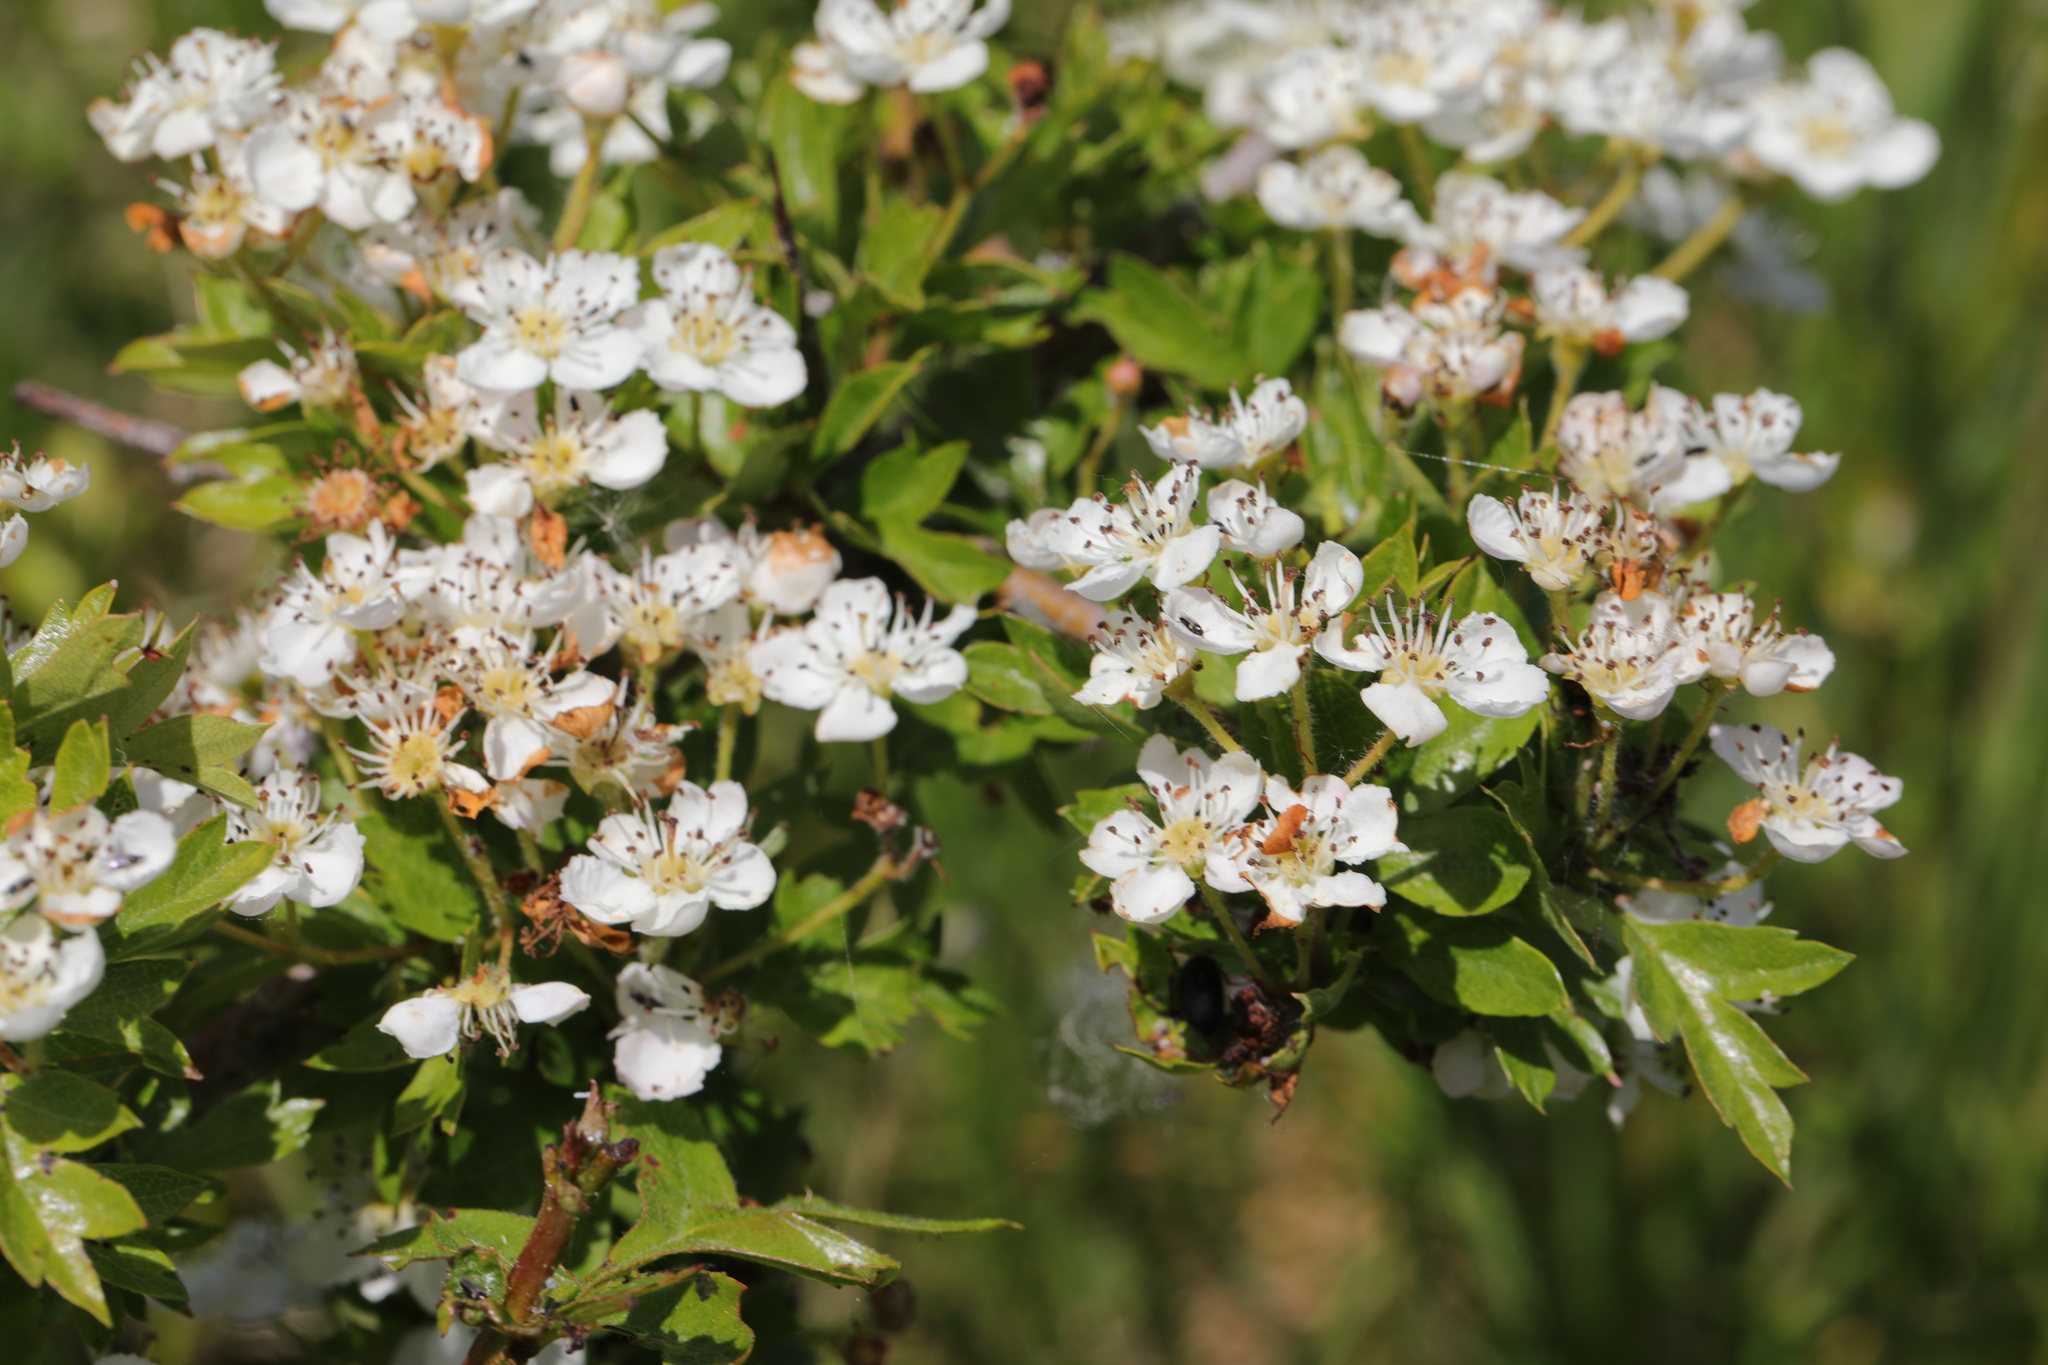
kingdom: Plantae
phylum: Tracheophyta
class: Magnoliopsida
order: Rosales
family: Rosaceae
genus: Crataegus
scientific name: Crataegus monogyna
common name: Hawthorn
